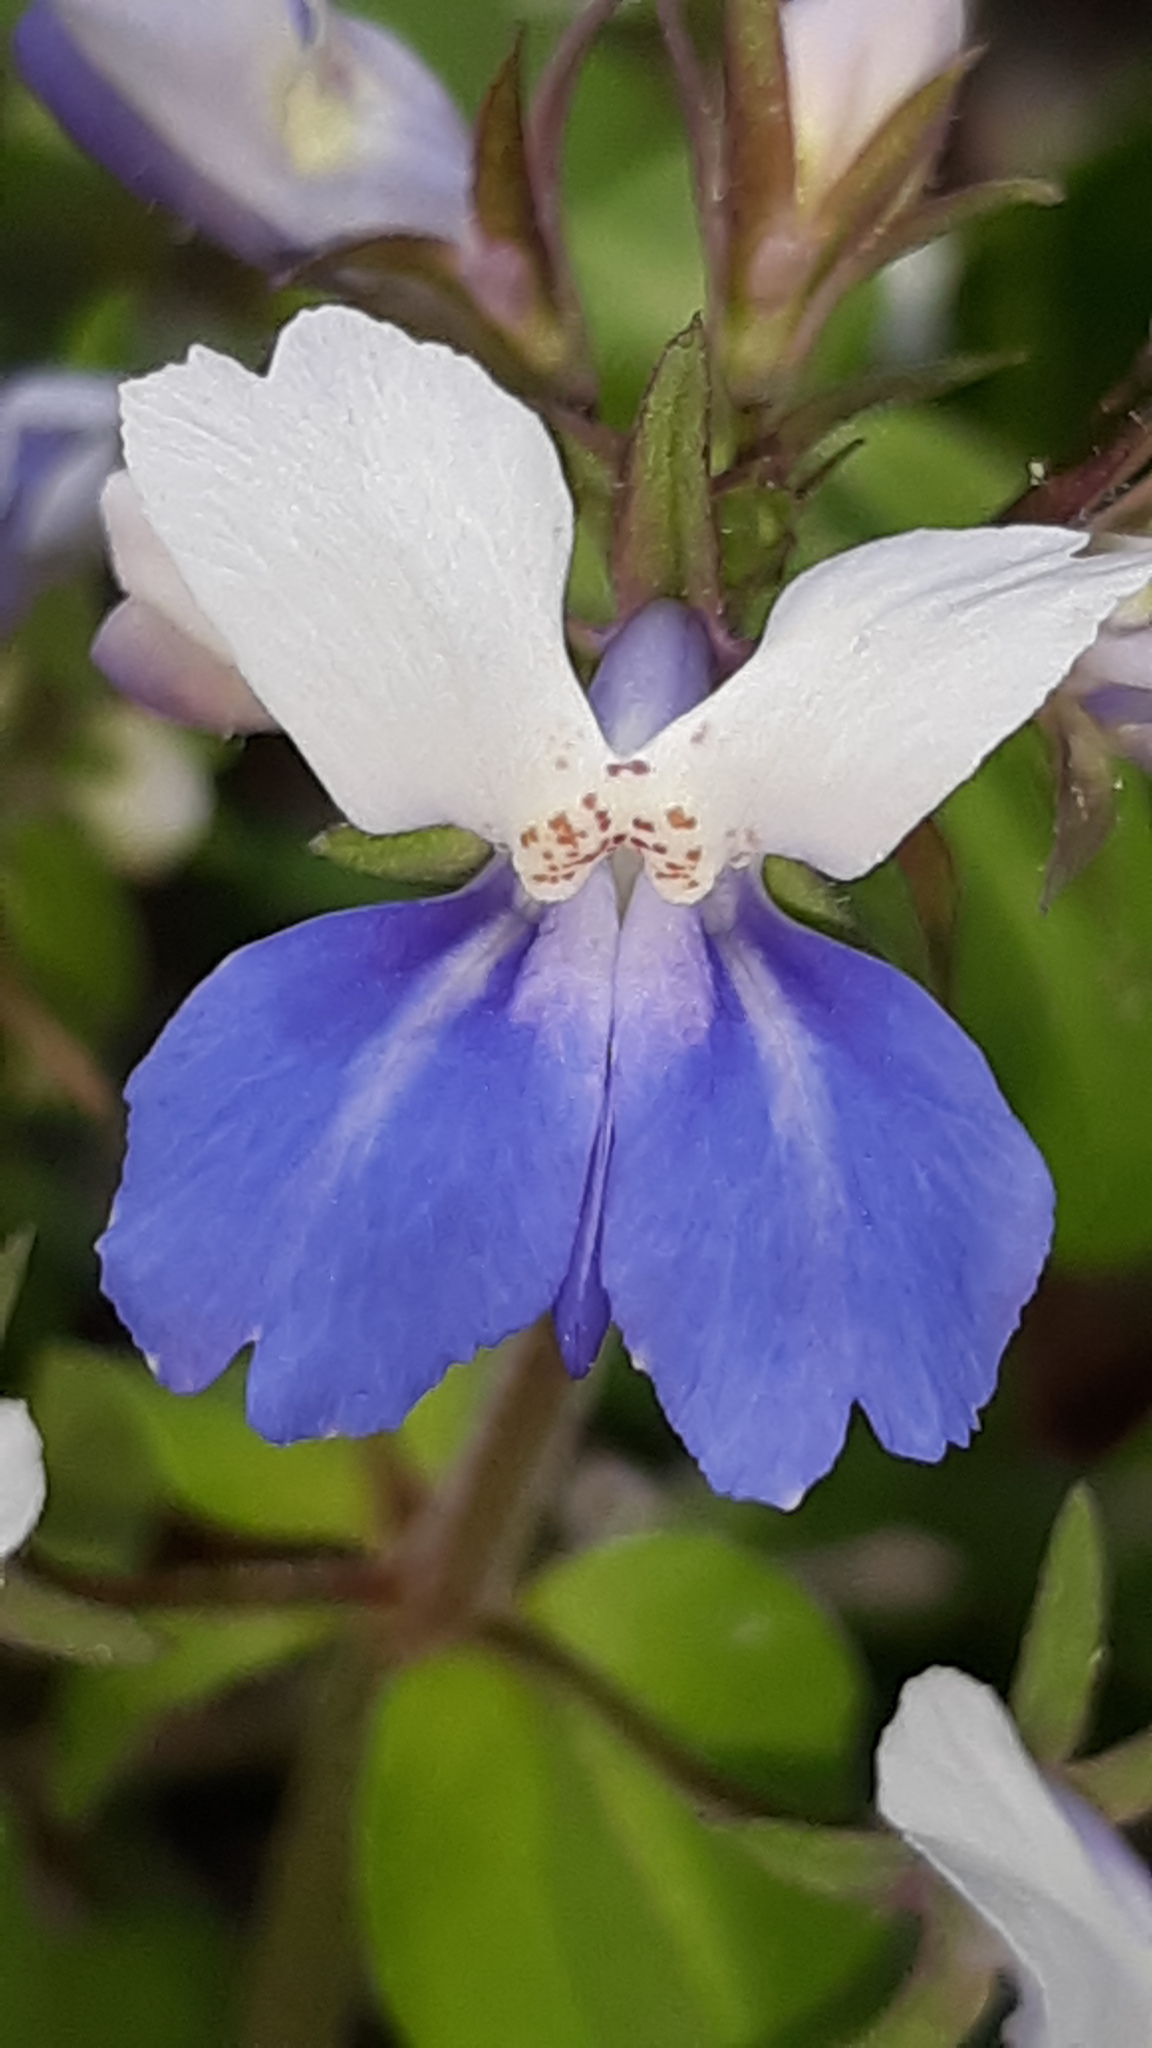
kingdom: Plantae
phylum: Tracheophyta
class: Magnoliopsida
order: Lamiales
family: Plantaginaceae
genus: Collinsia
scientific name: Collinsia verna
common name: Broad-leaved collinsia
